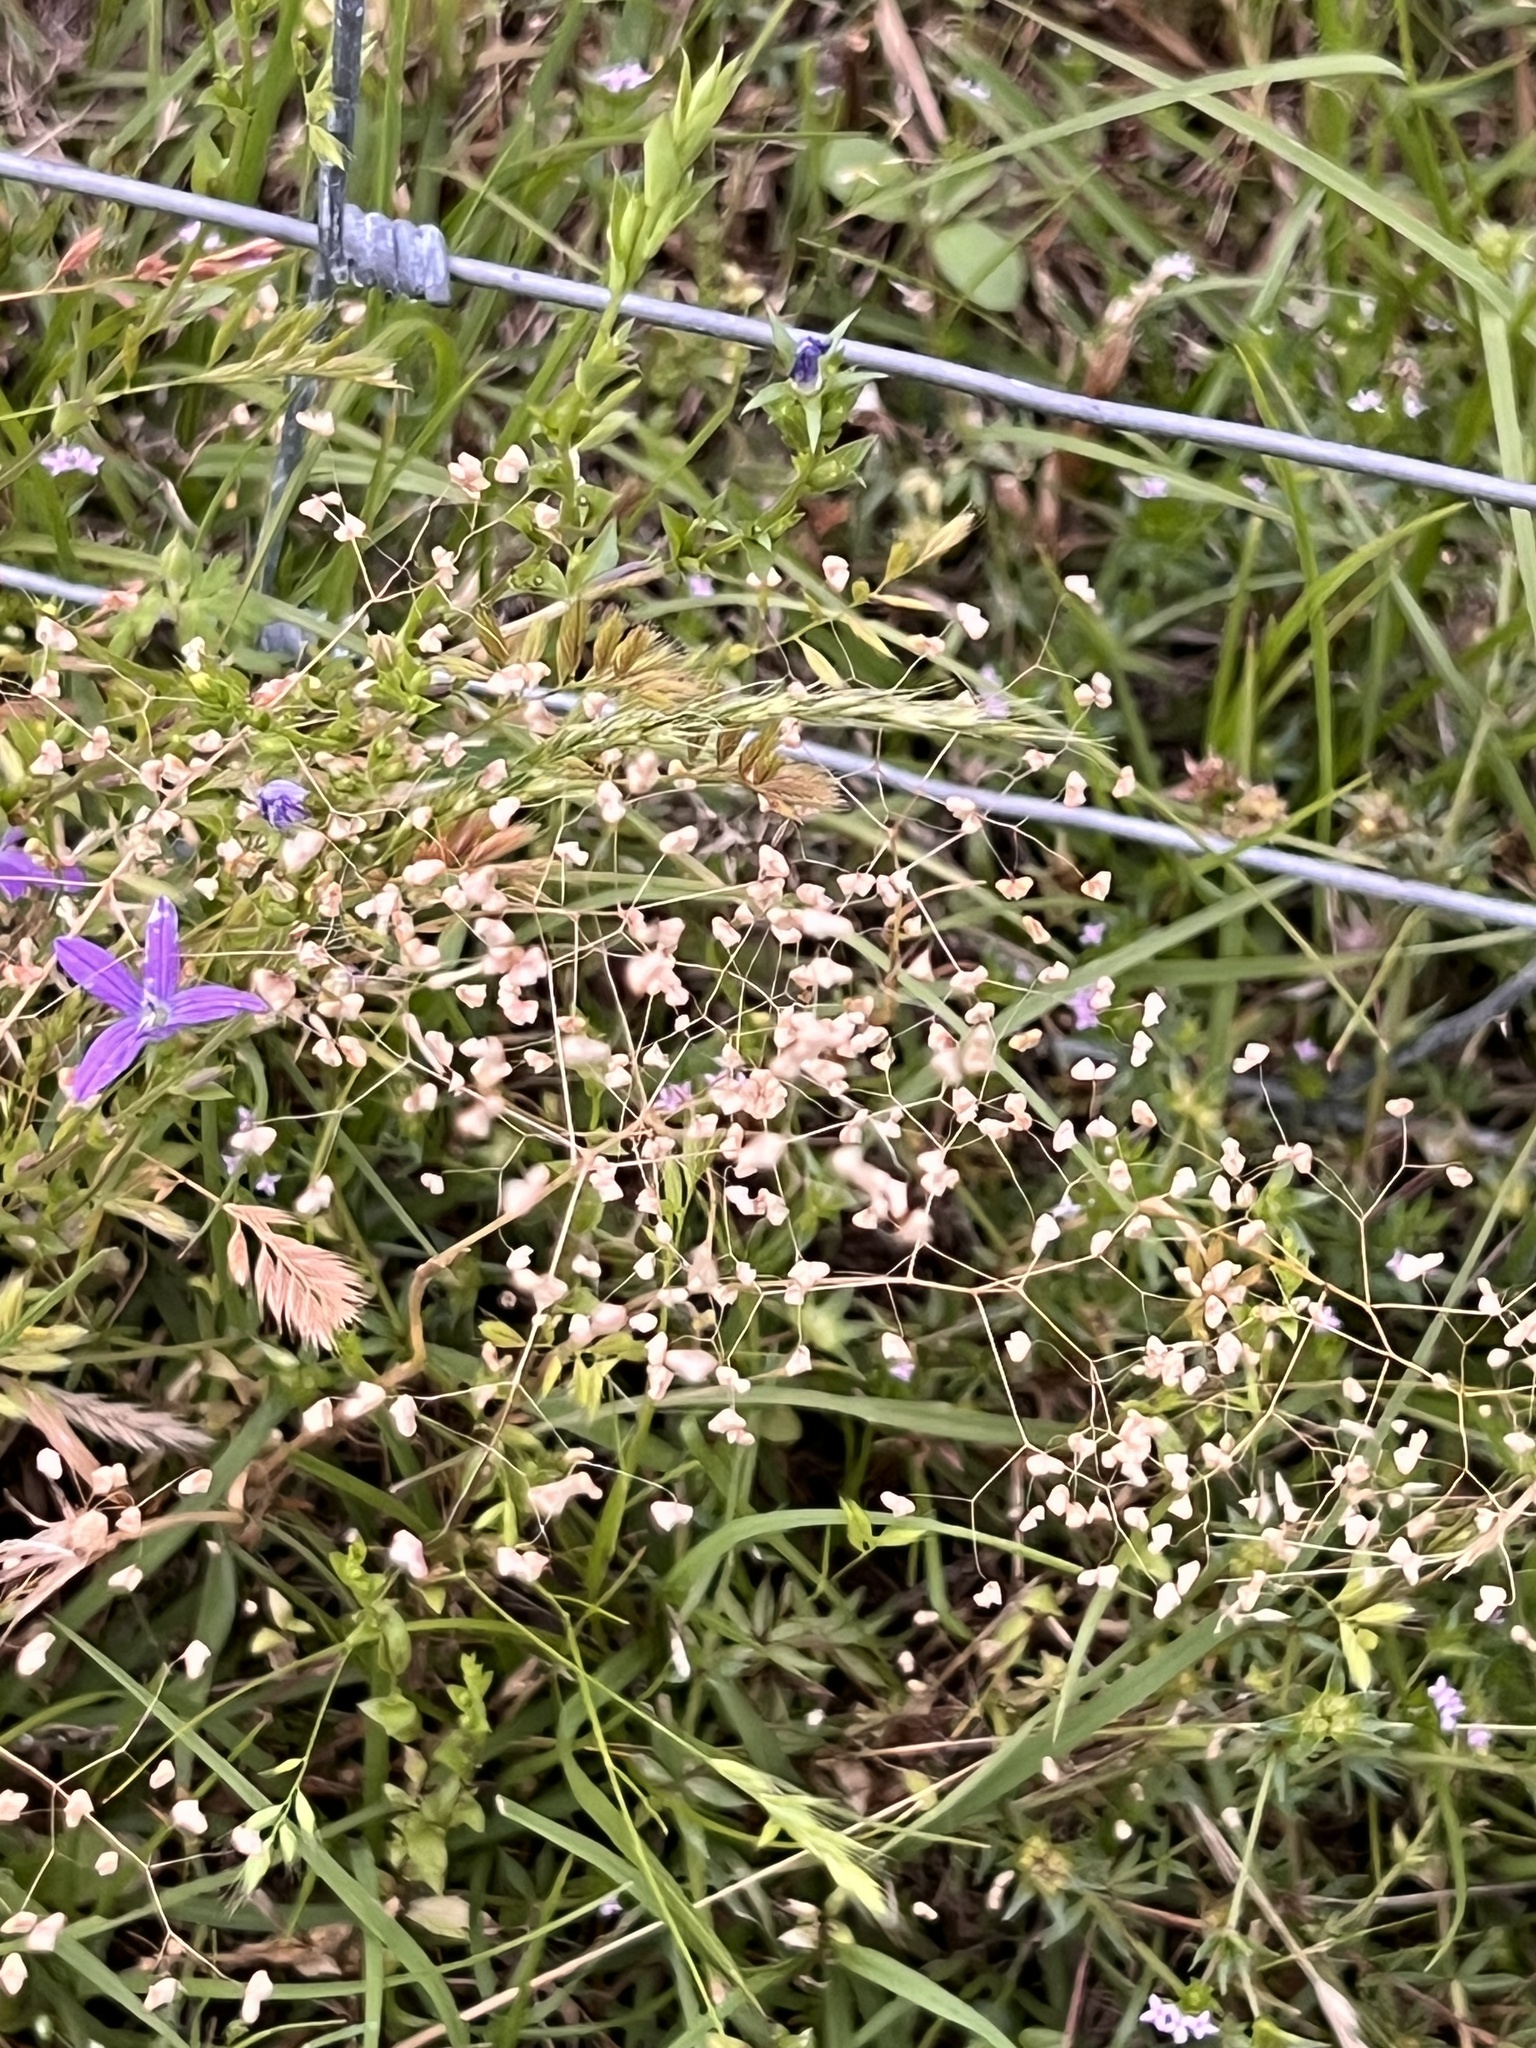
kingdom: Plantae
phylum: Tracheophyta
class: Liliopsida
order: Poales
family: Poaceae
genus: Briza
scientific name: Briza minor
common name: Lesser quaking-grass
